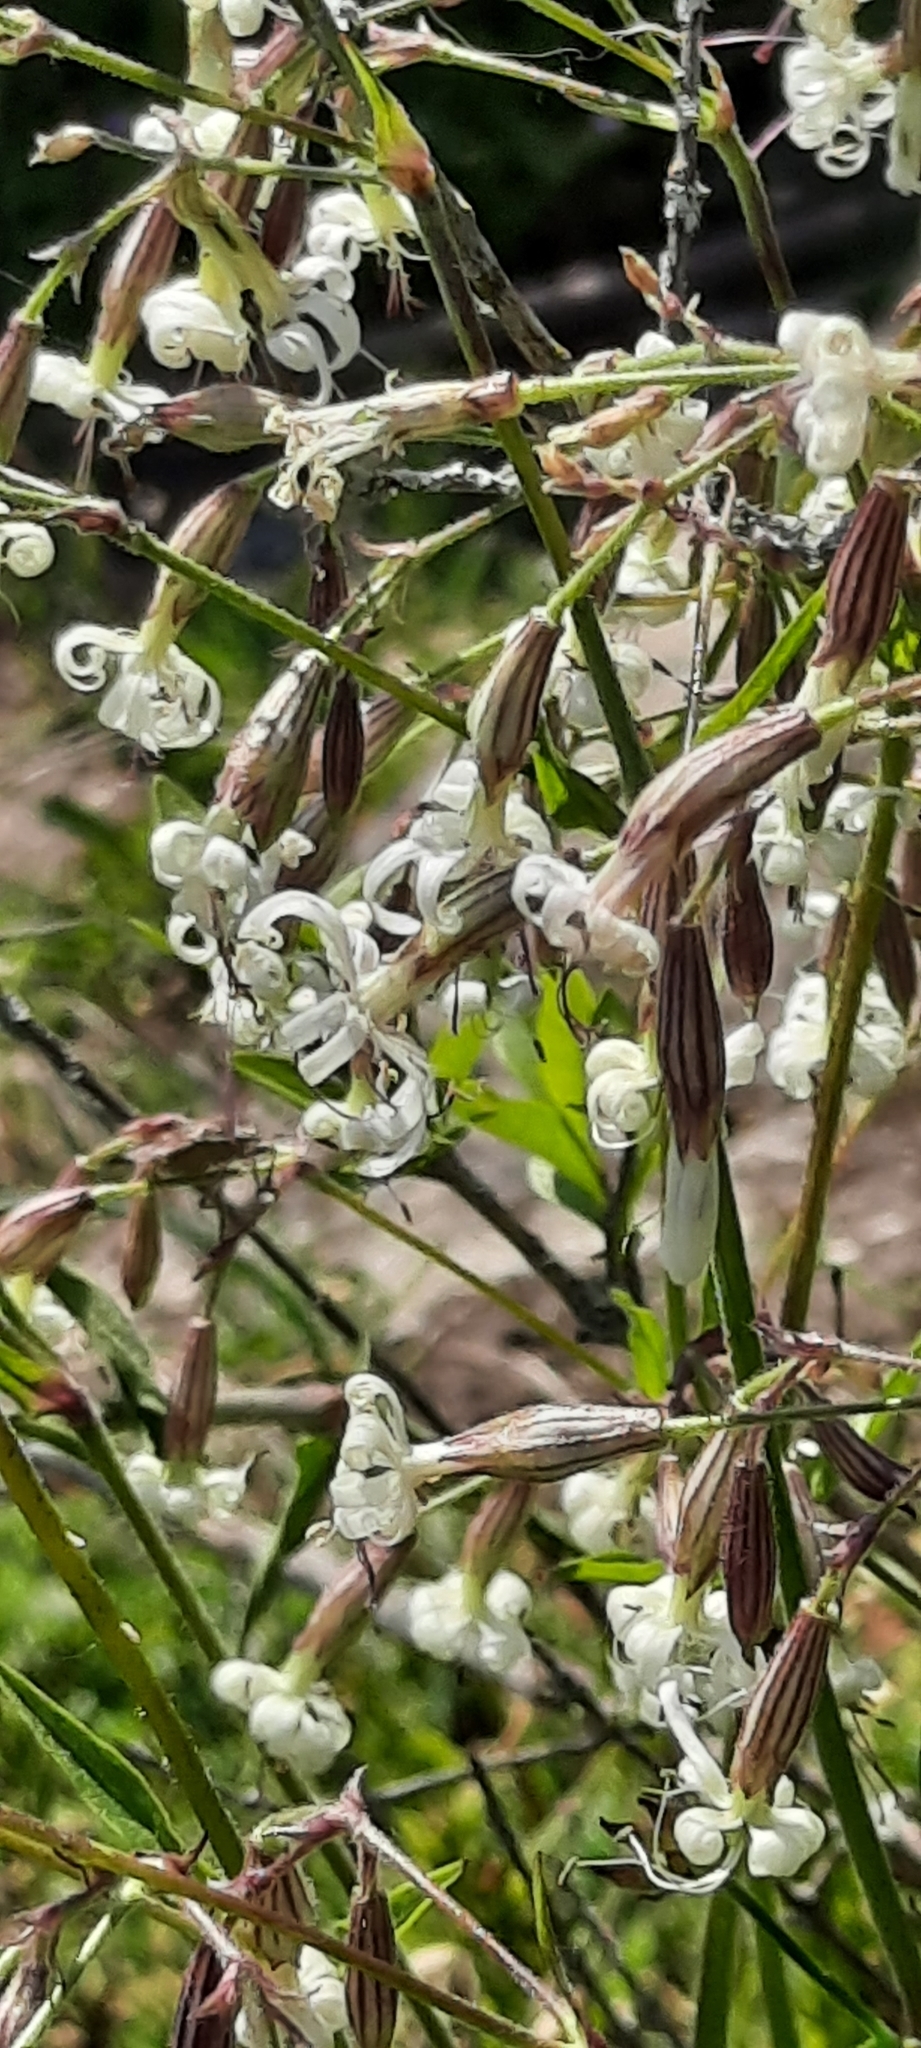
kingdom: Plantae
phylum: Tracheophyta
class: Magnoliopsida
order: Caryophyllales
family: Caryophyllaceae
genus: Silene
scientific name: Silene nutans
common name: Nottingham catchfly
